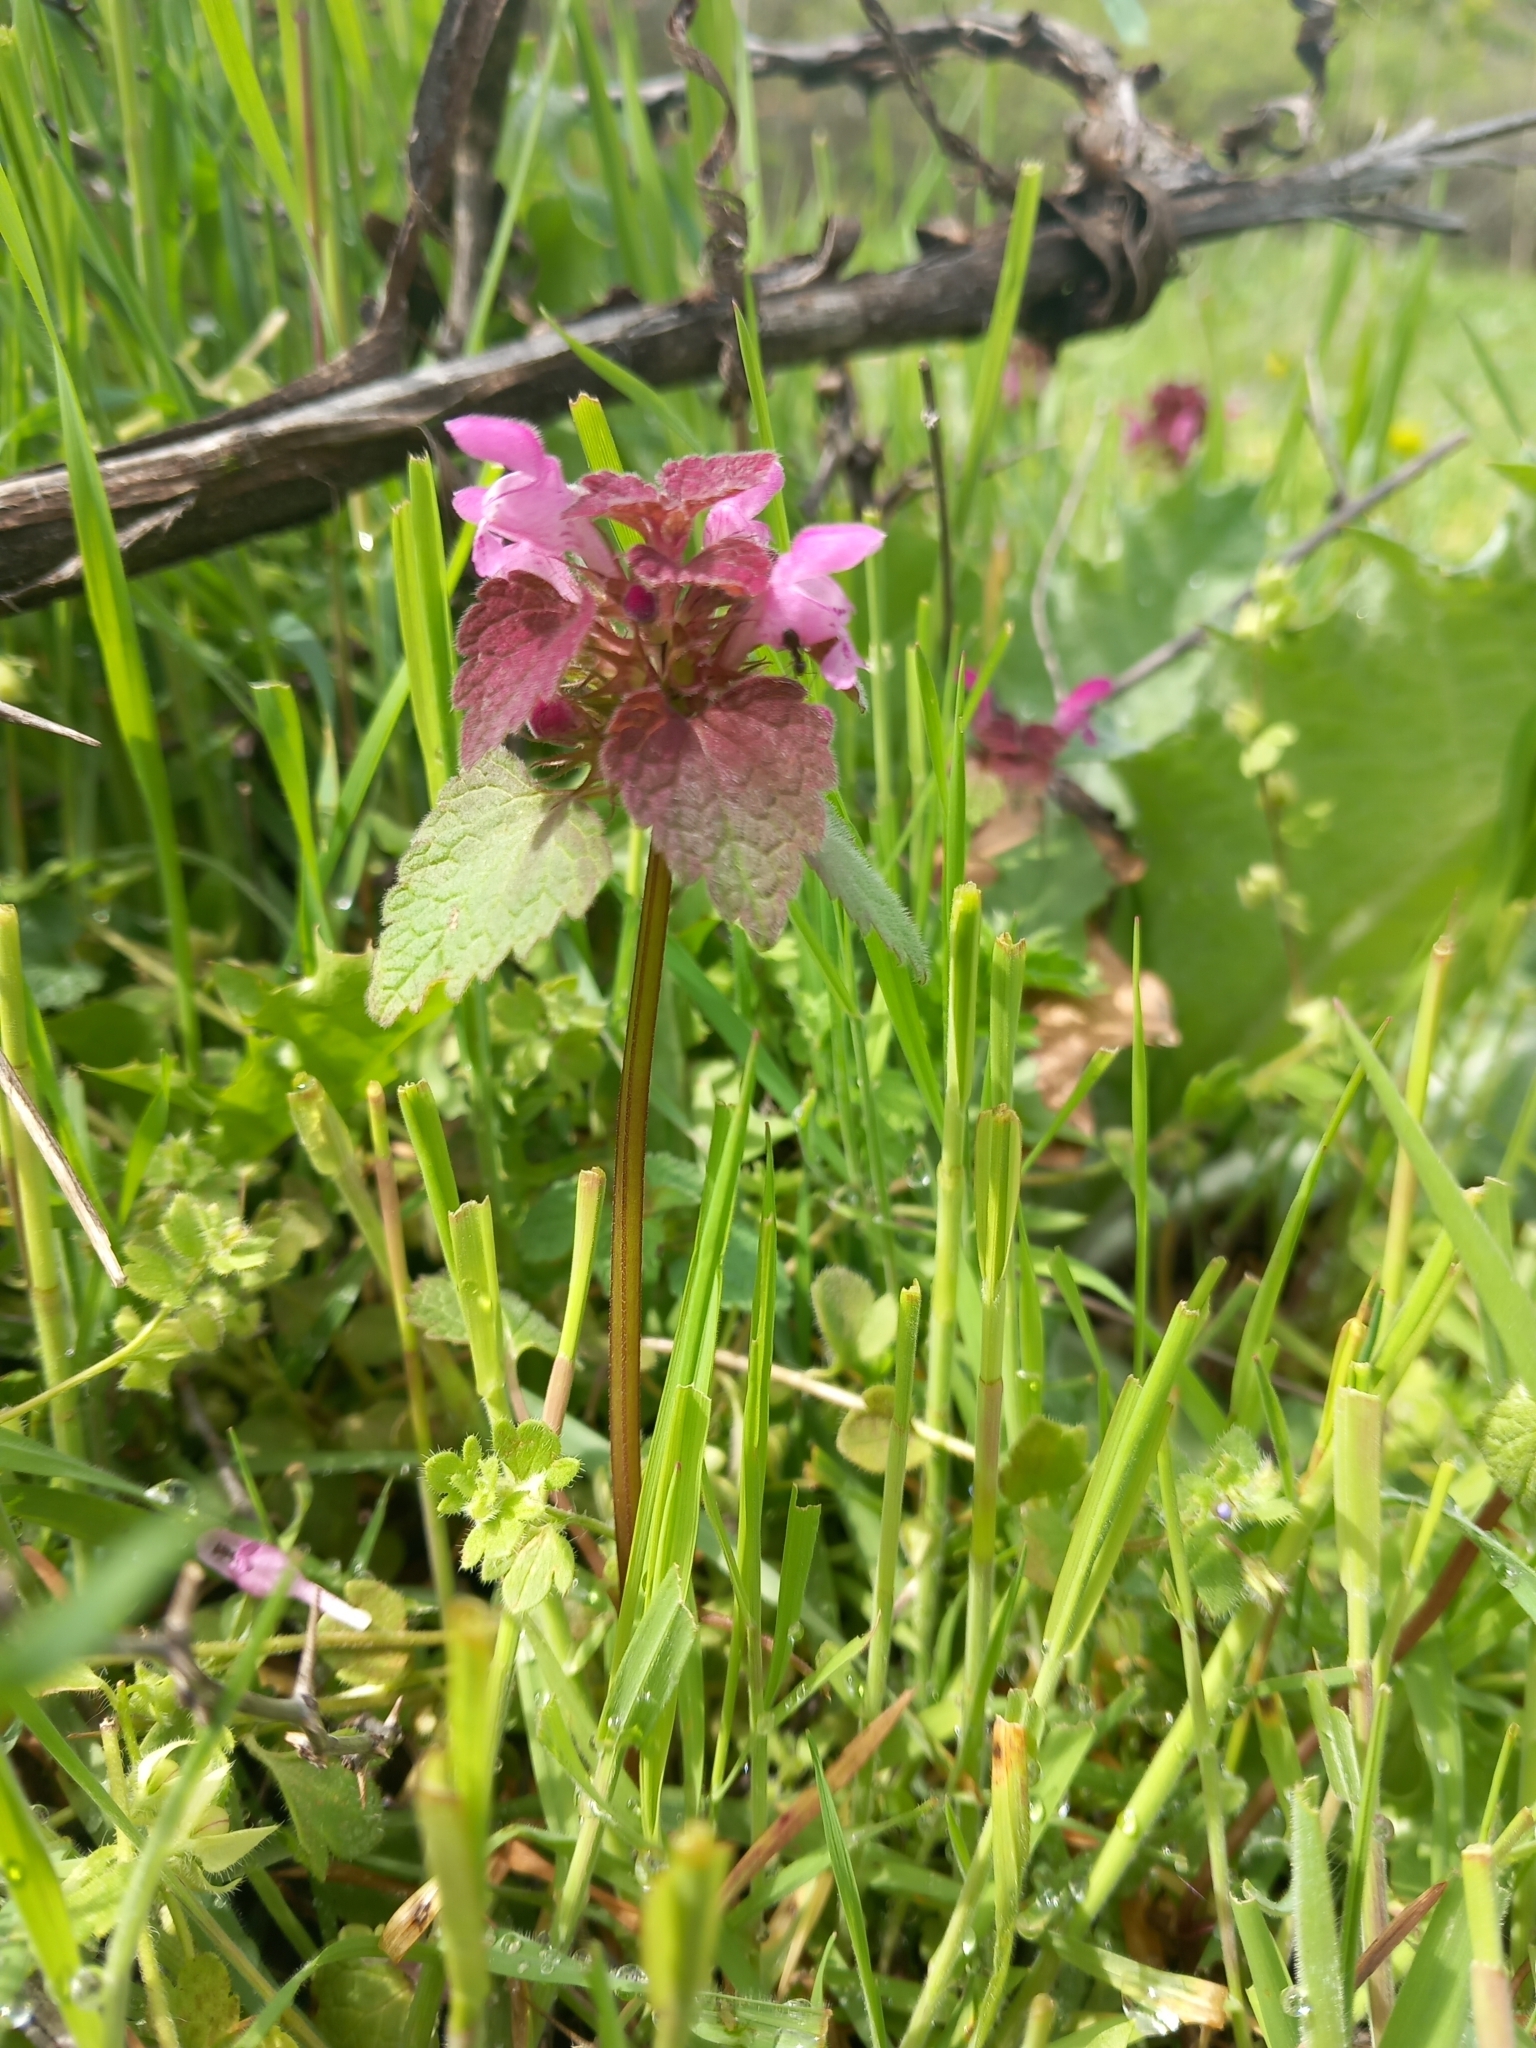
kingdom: Plantae
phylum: Tracheophyta
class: Magnoliopsida
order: Lamiales
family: Lamiaceae
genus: Lamium
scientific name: Lamium purpureum
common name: Red dead-nettle
